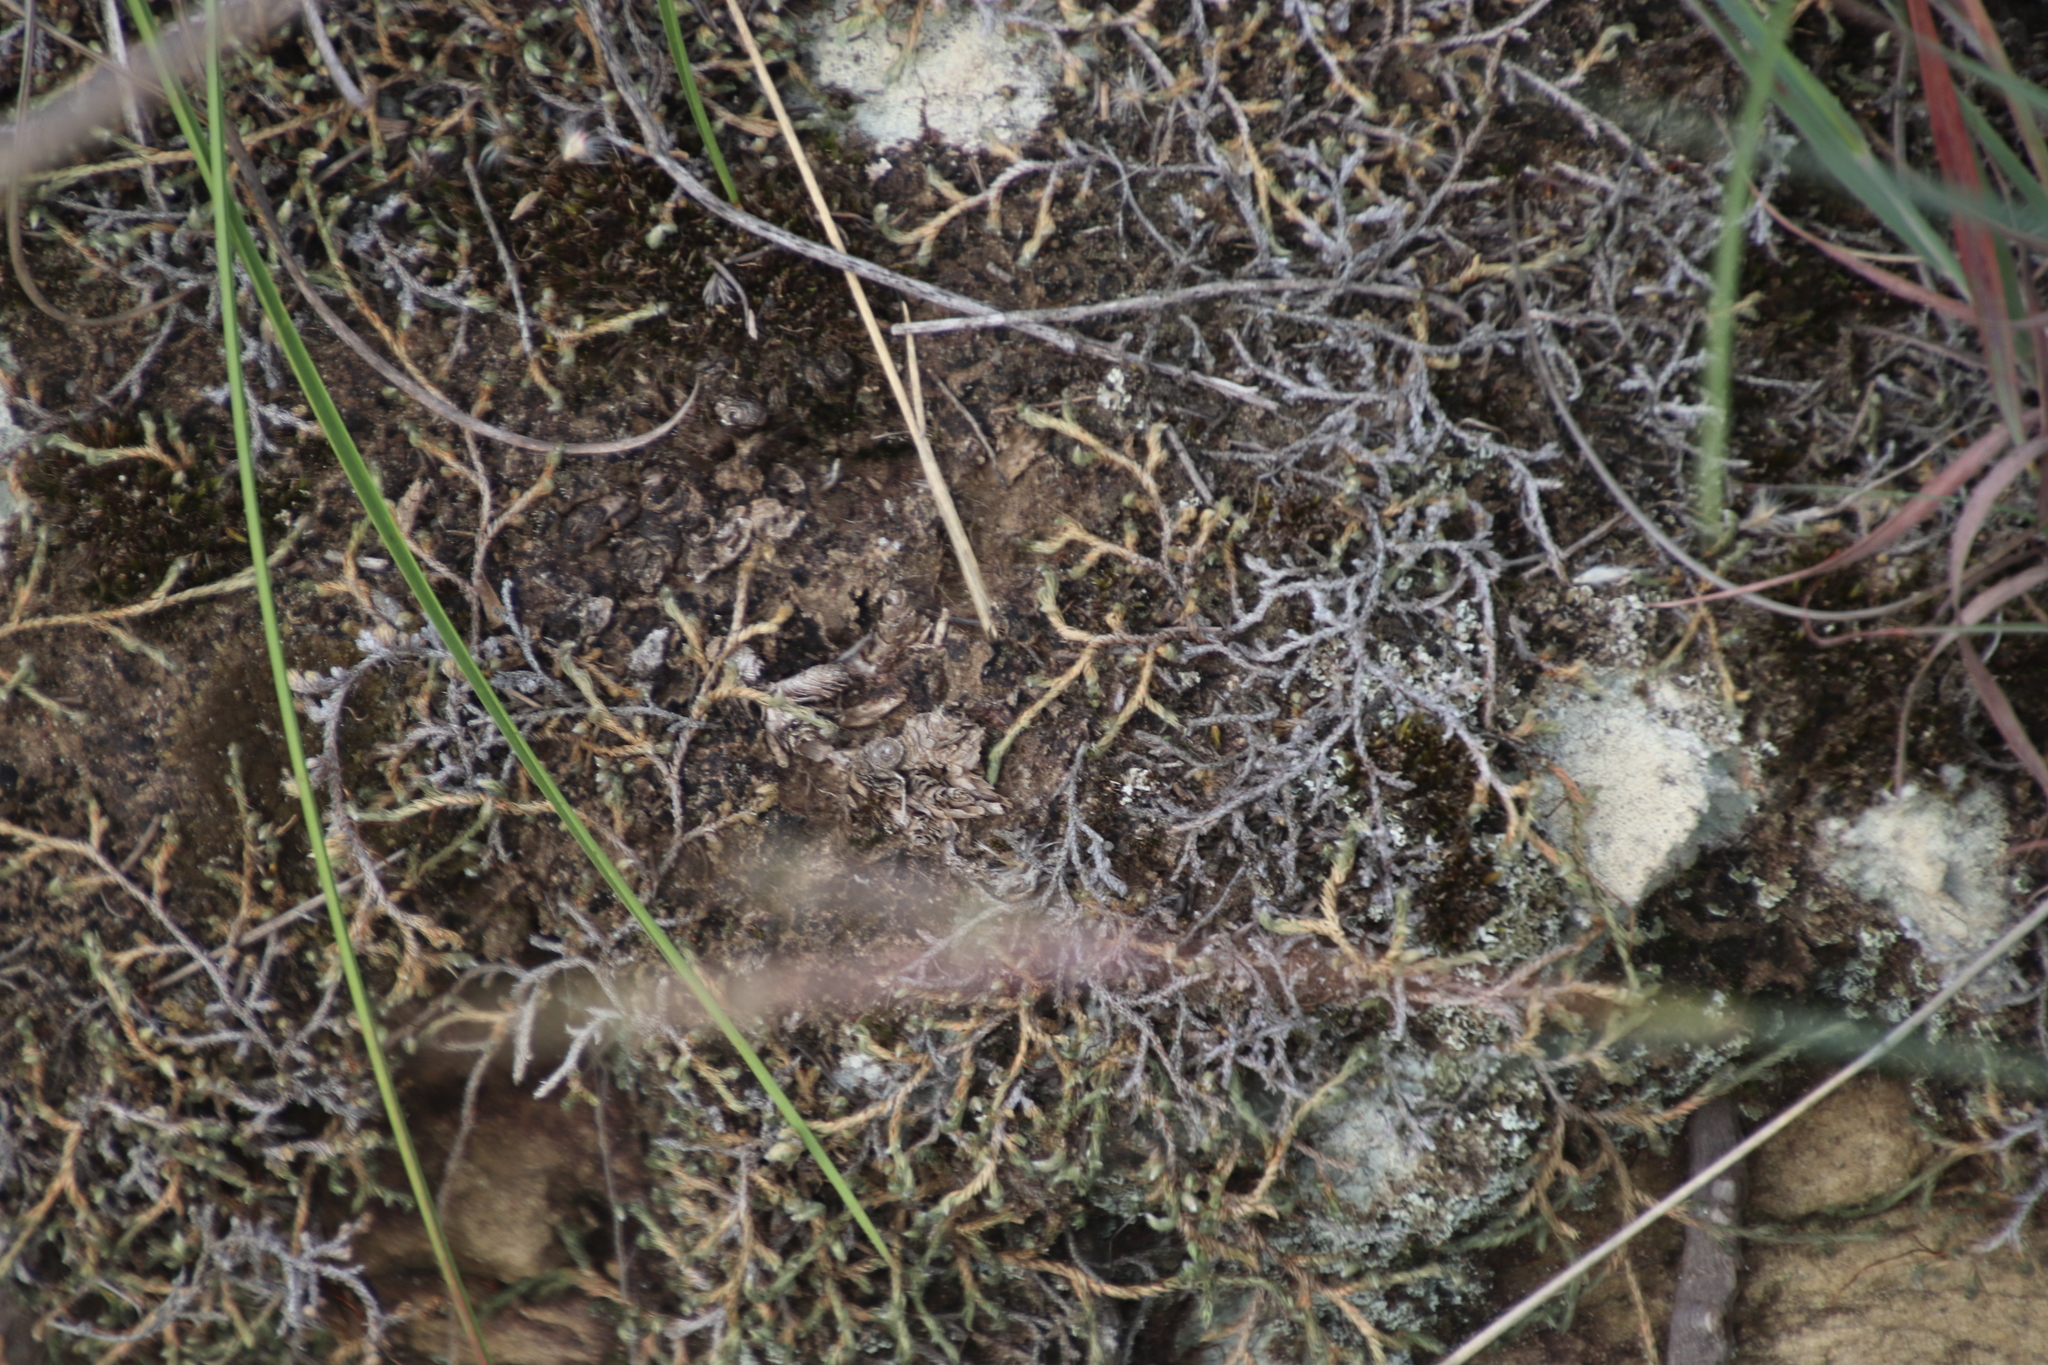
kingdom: Plantae
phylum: Tracheophyta
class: Lycopodiopsida
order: Selaginellales
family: Selaginellaceae
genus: Selaginella
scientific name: Selaginella dregei
